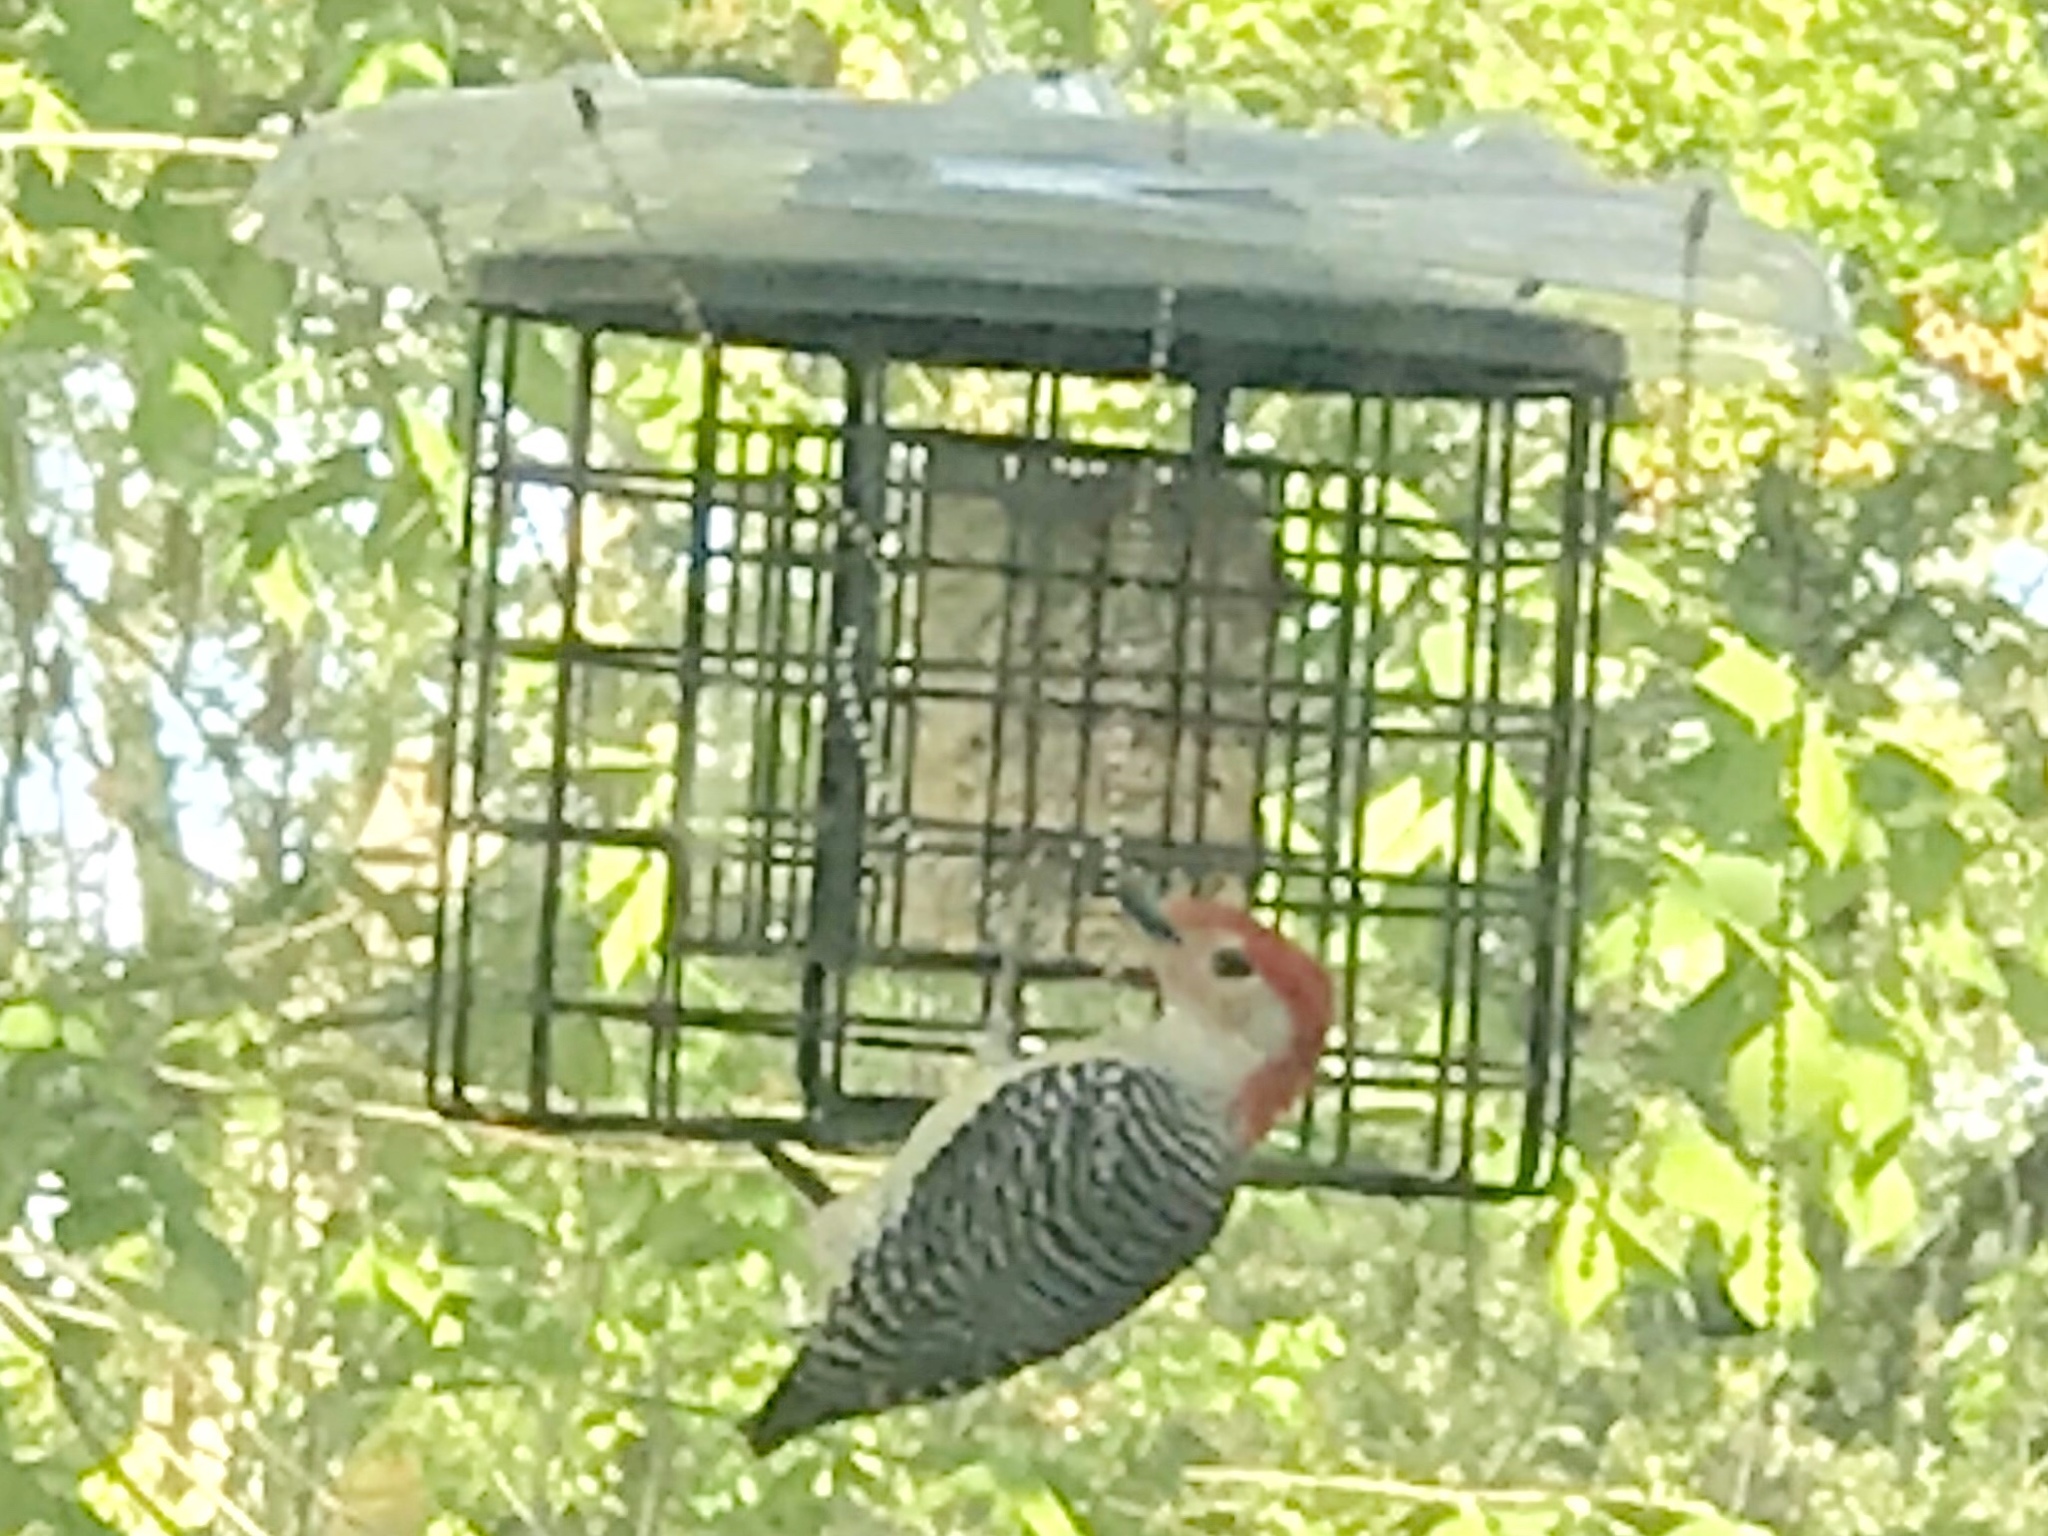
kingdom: Animalia
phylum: Chordata
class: Aves
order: Piciformes
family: Picidae
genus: Melanerpes
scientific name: Melanerpes carolinus
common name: Red-bellied woodpecker
